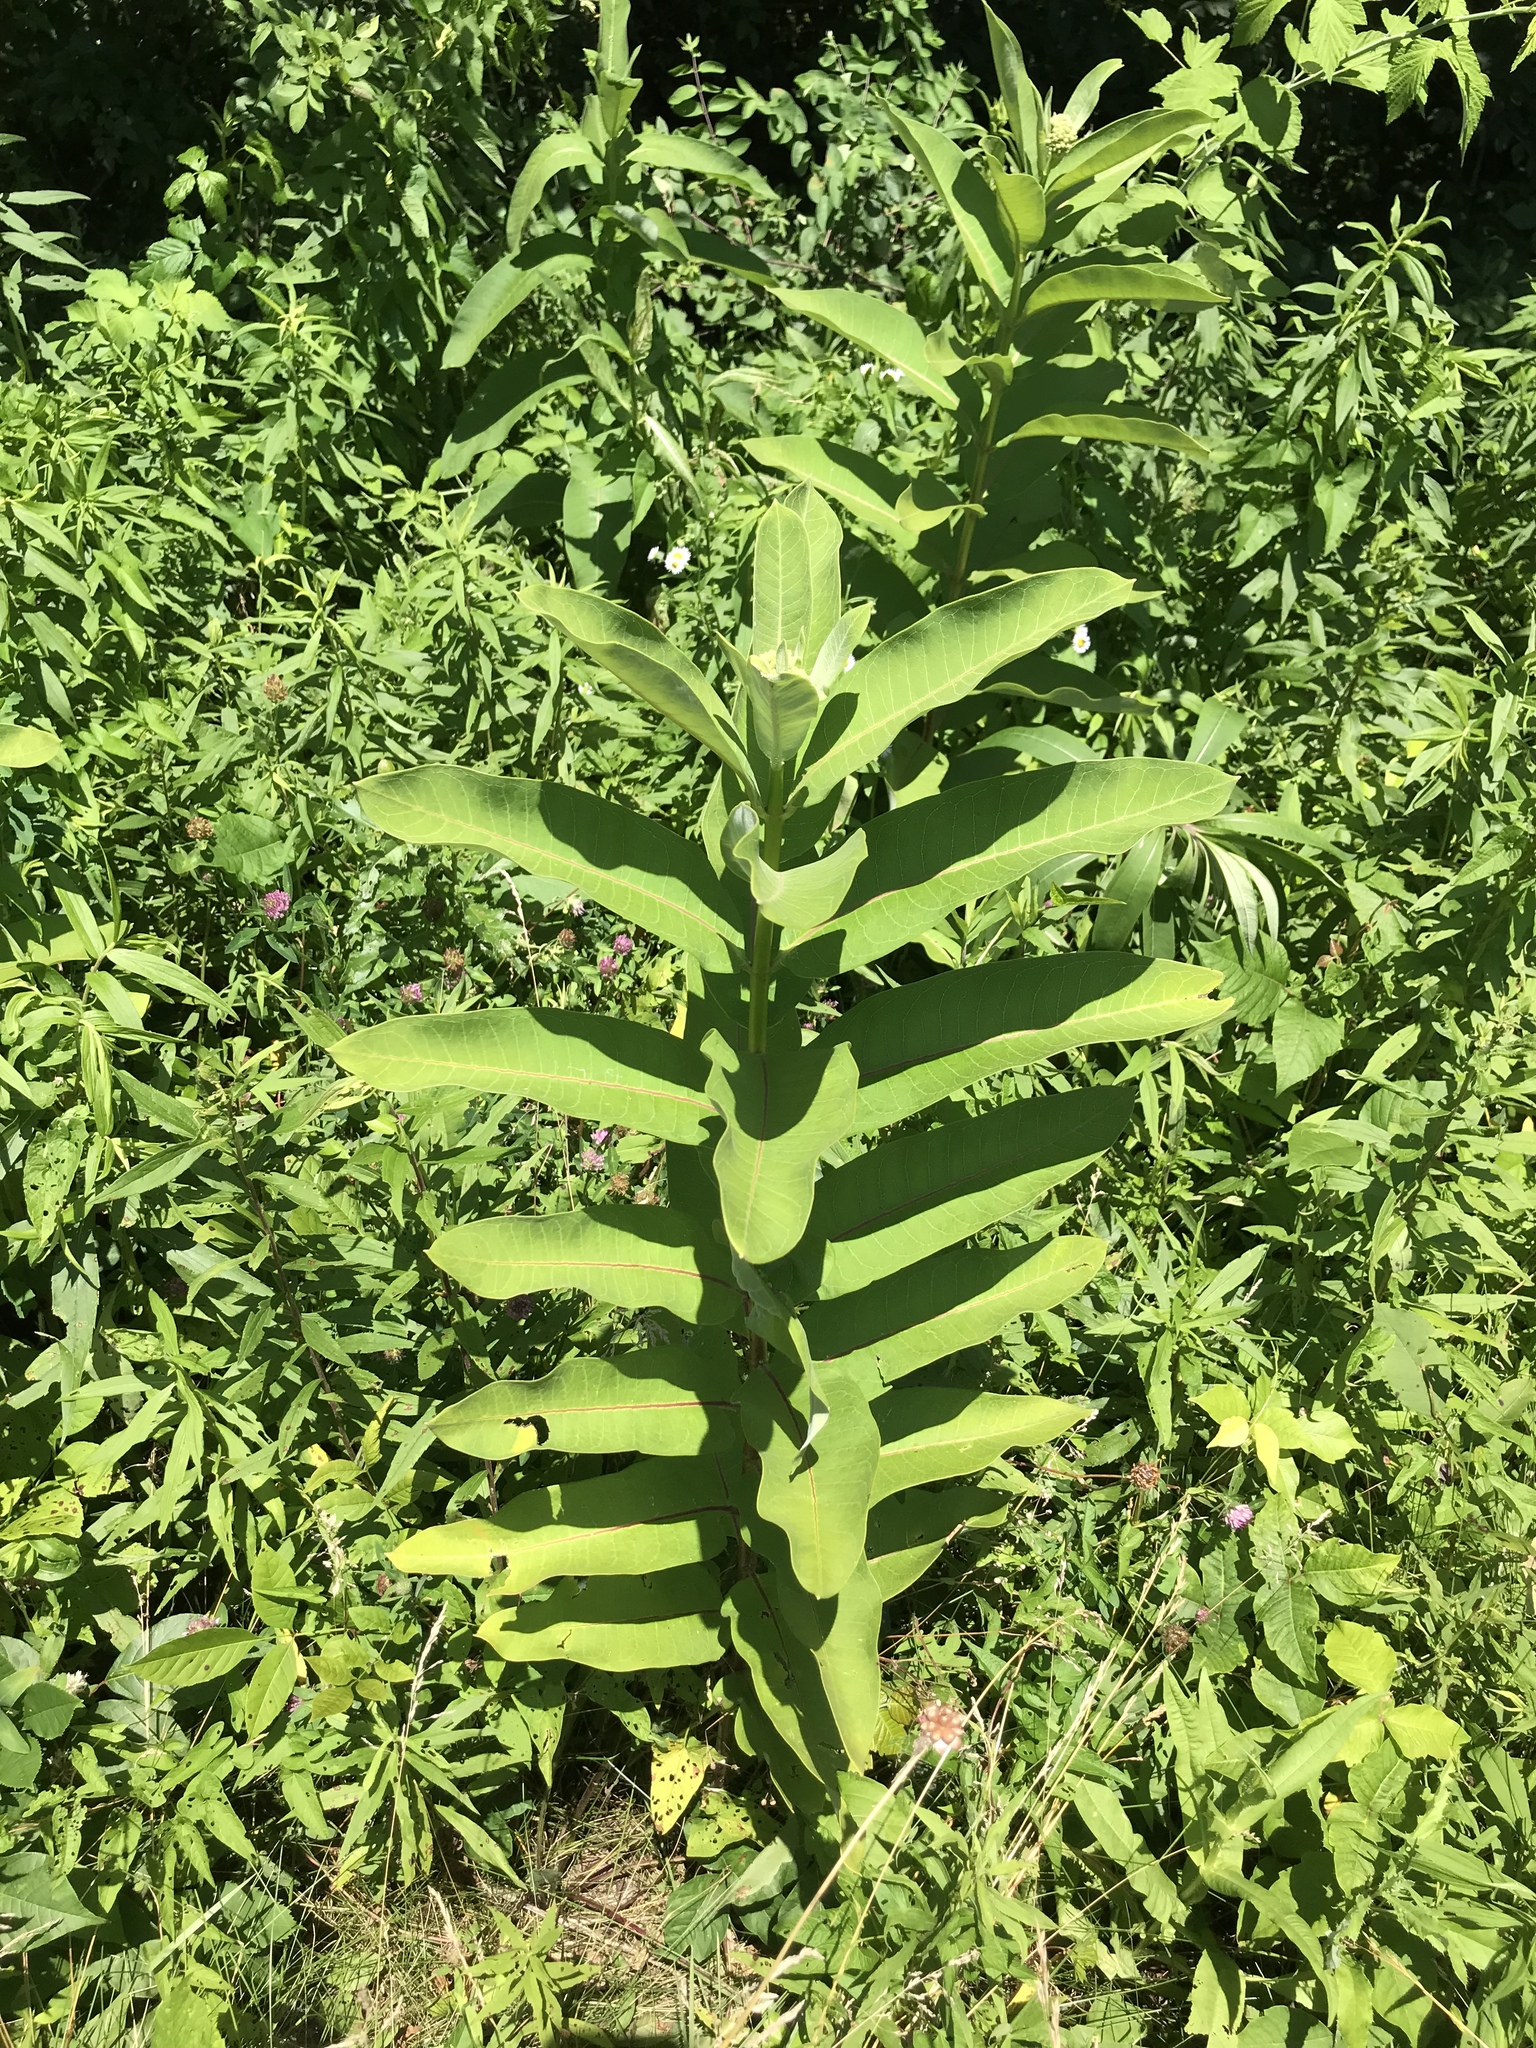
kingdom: Plantae
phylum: Tracheophyta
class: Magnoliopsida
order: Gentianales
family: Apocynaceae
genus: Asclepias
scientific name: Asclepias syriaca
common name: Common milkweed
